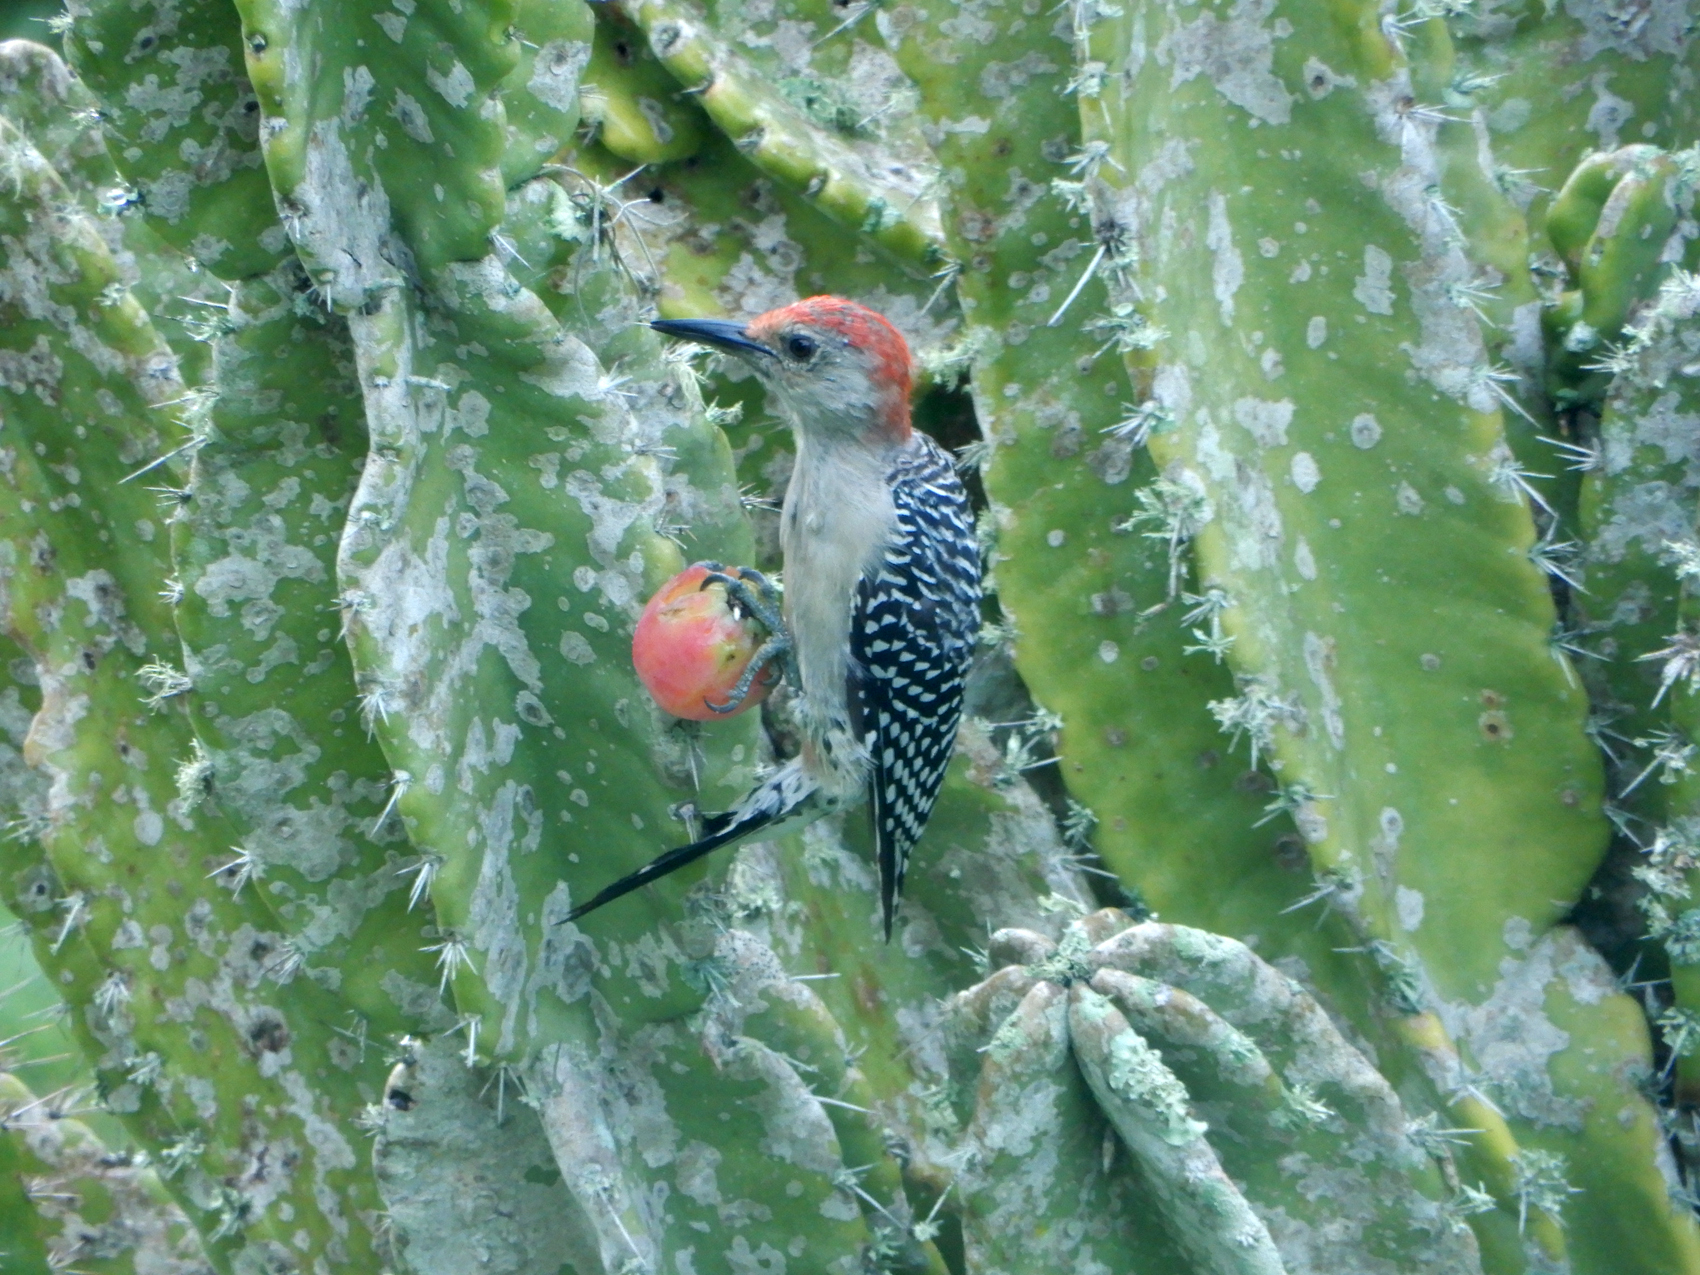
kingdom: Animalia
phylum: Chordata
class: Aves
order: Piciformes
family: Picidae
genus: Melanerpes
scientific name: Melanerpes carolinus
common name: Red-bellied woodpecker
